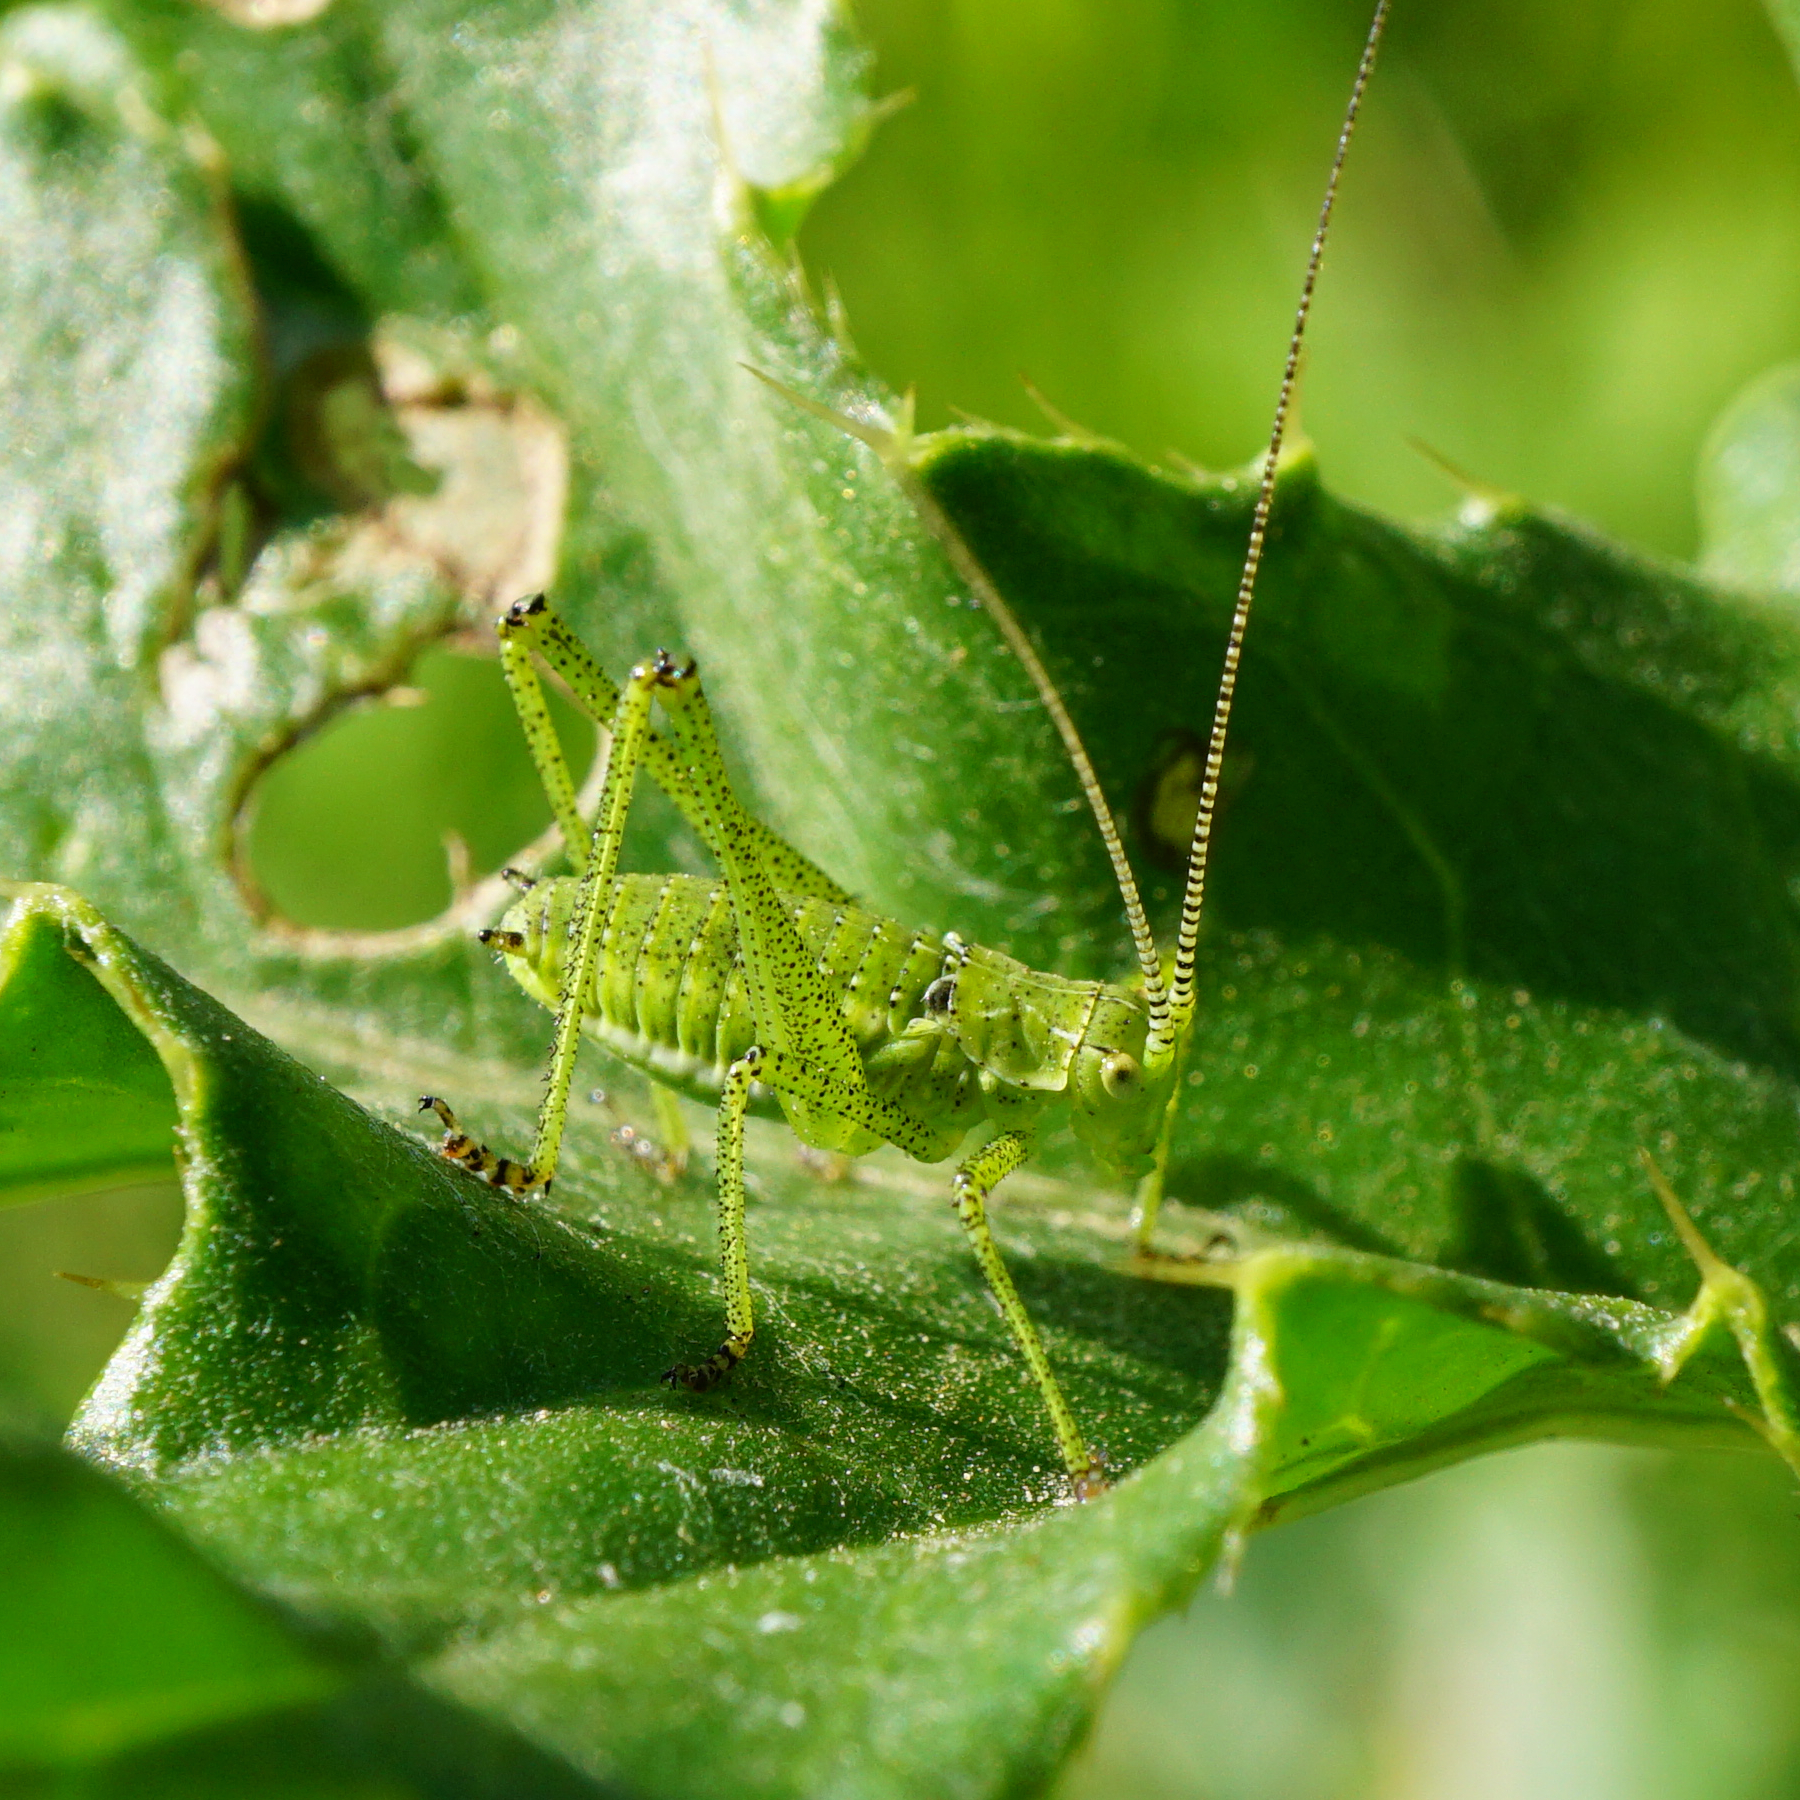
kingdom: Animalia
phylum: Arthropoda
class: Insecta
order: Orthoptera
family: Tettigoniidae
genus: Leptophyes
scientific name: Leptophyes albovittata
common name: Striped bush-cricket
